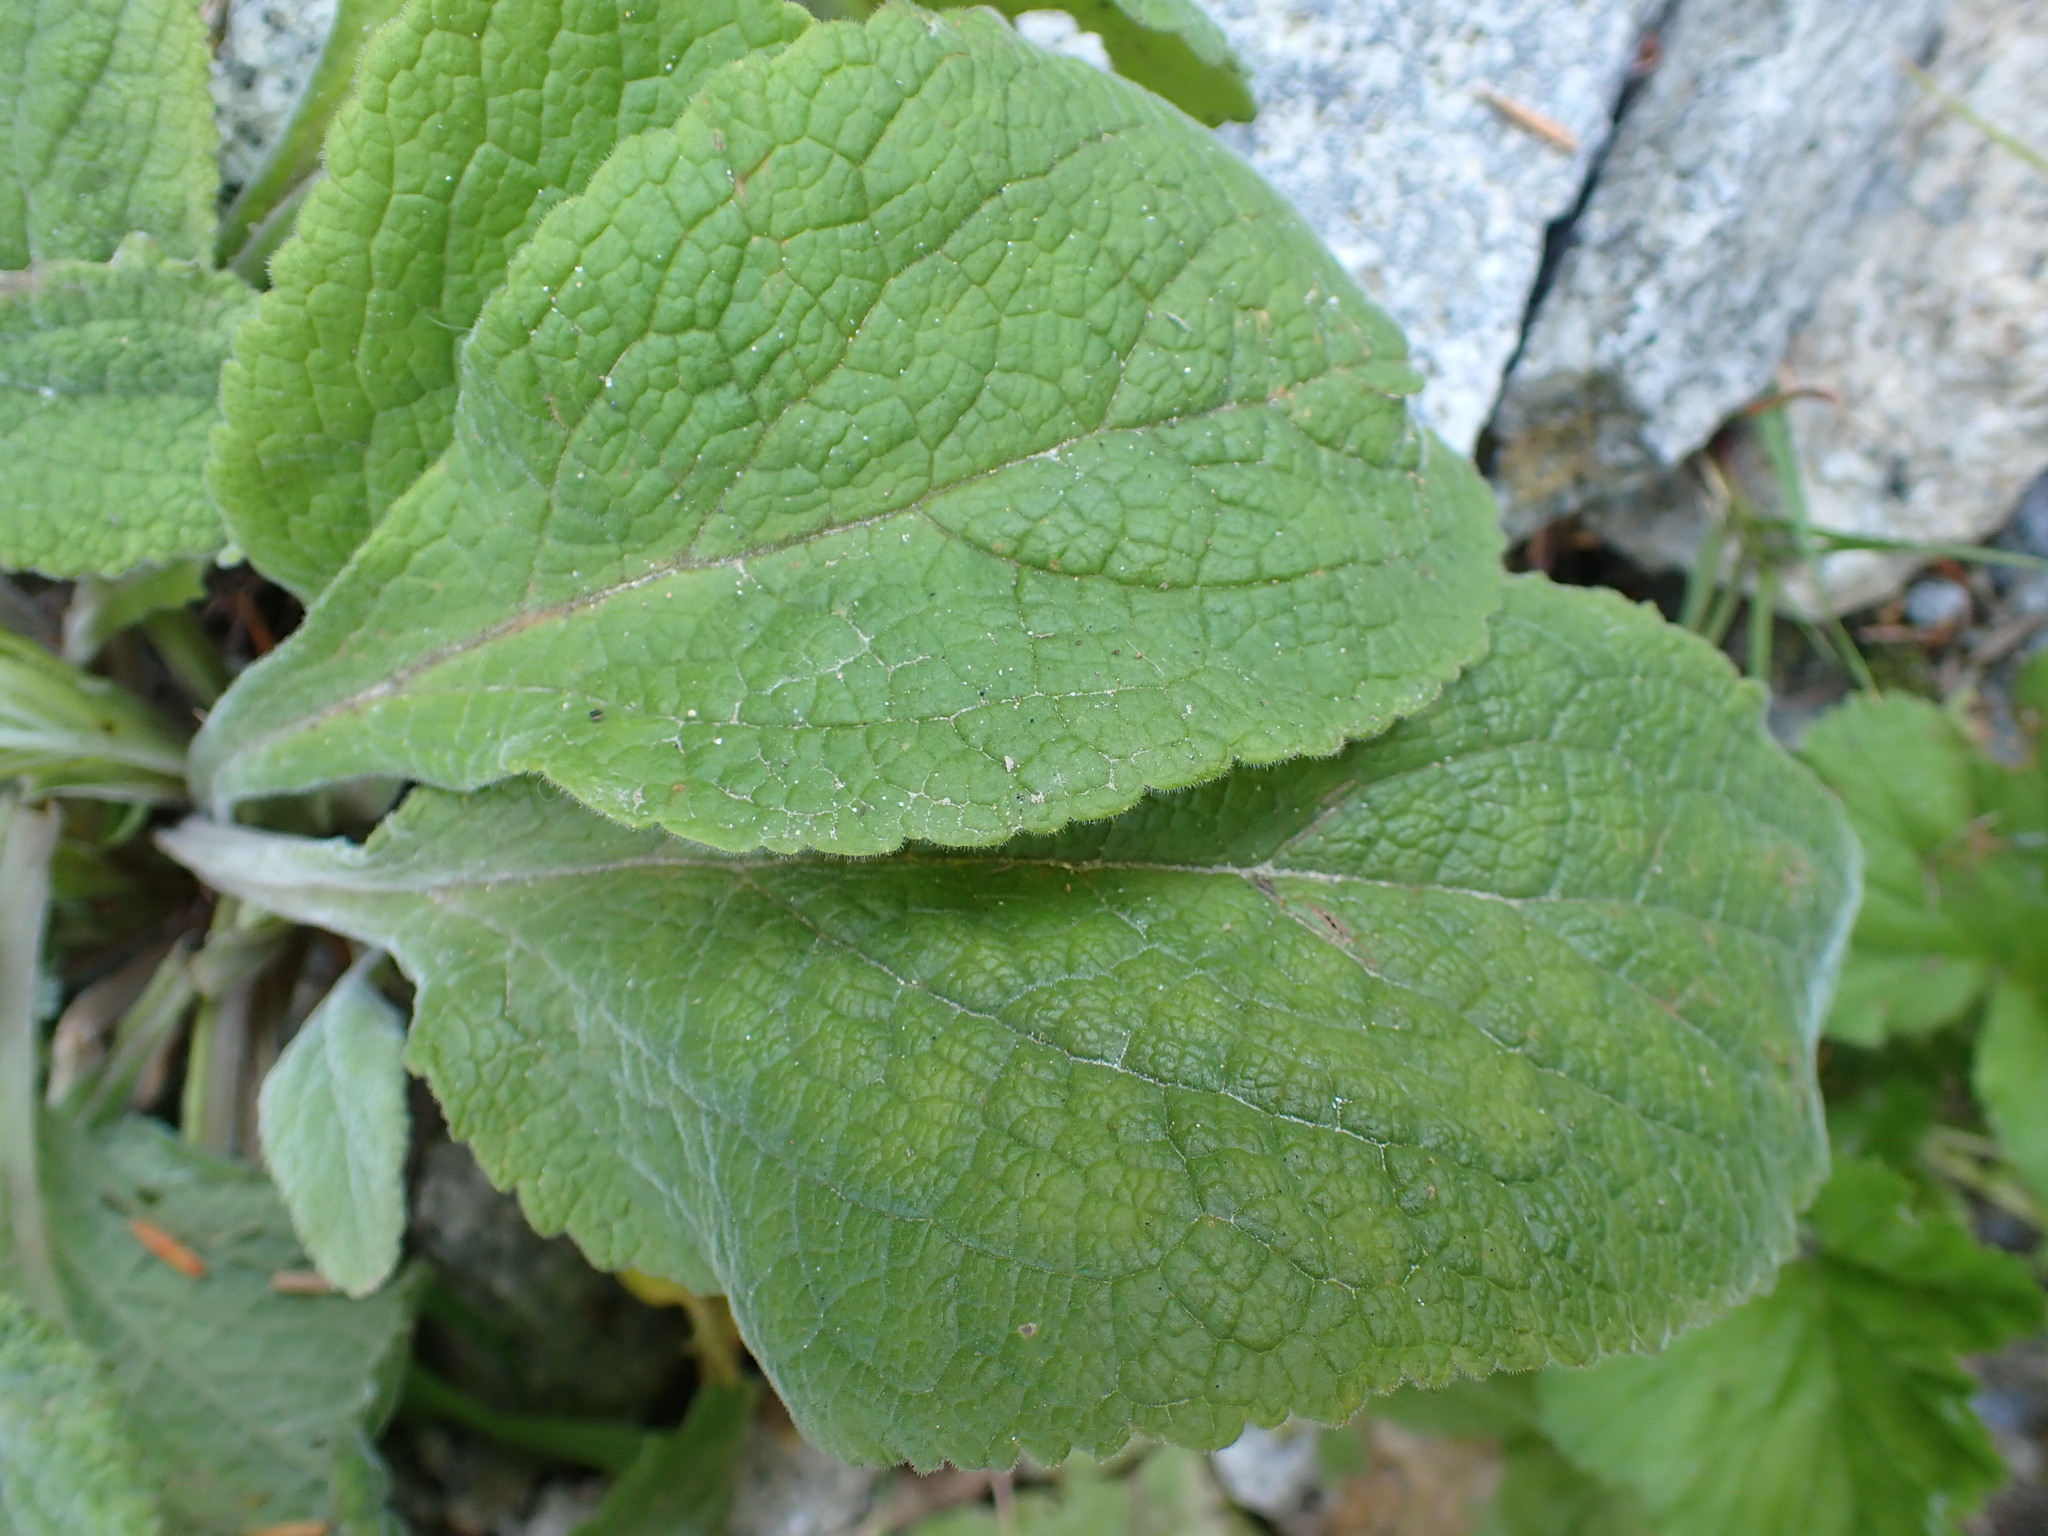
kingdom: Plantae
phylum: Tracheophyta
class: Magnoliopsida
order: Lamiales
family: Plantaginaceae
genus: Digitalis
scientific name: Digitalis purpurea
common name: Foxglove
